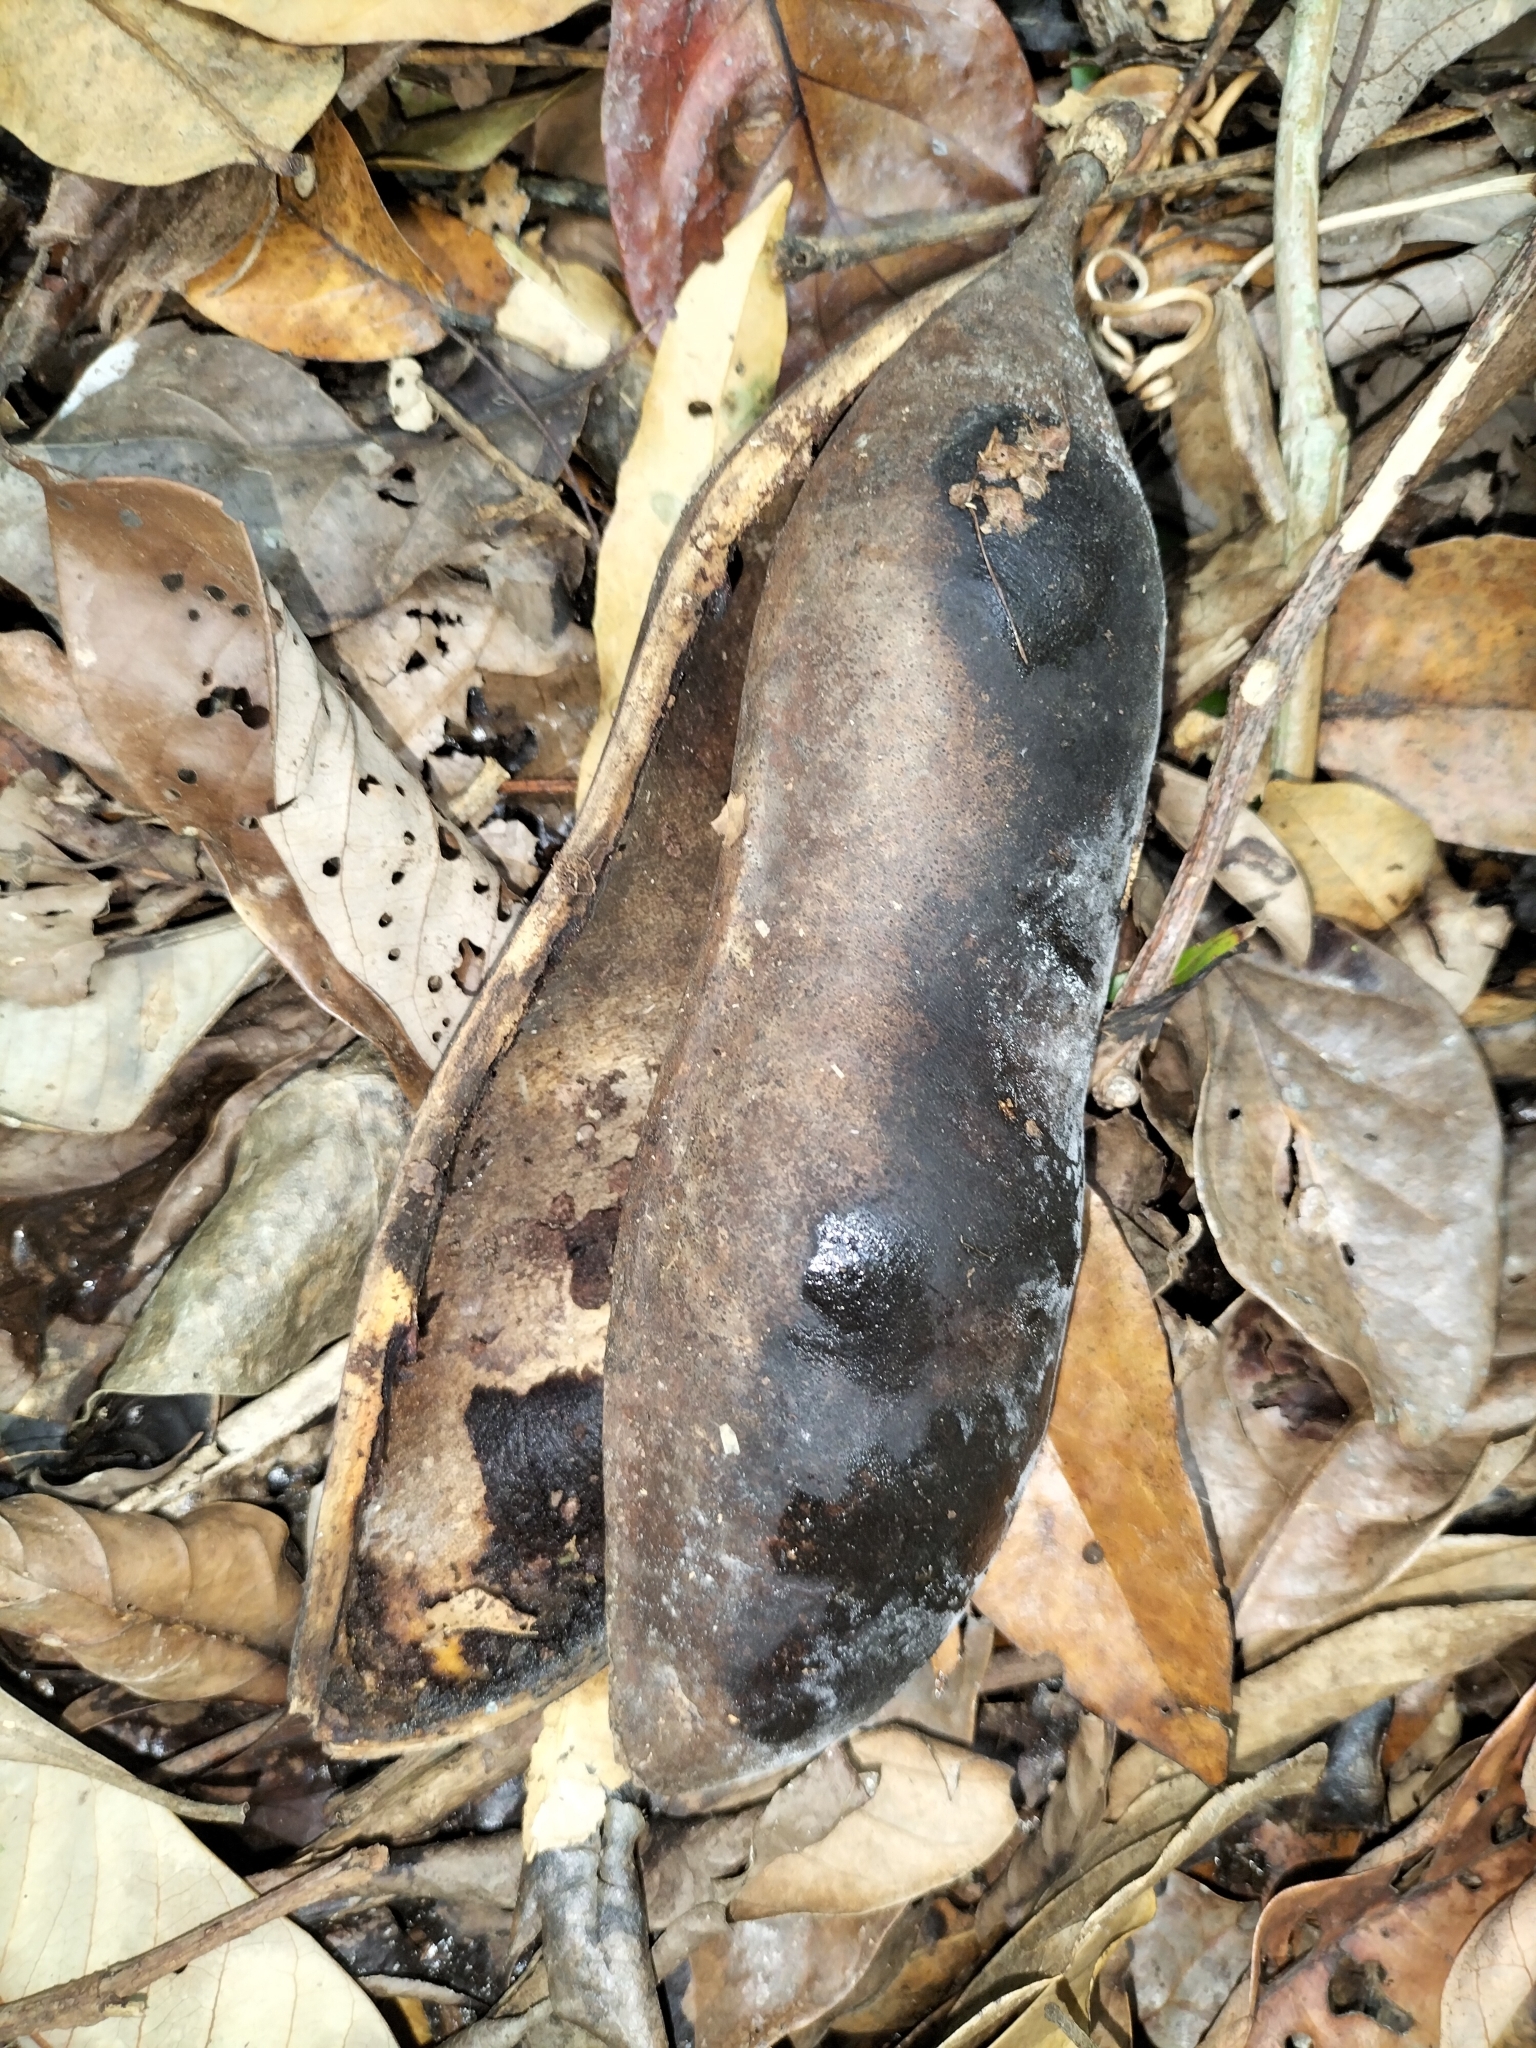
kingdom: Plantae
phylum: Tracheophyta
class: Magnoliopsida
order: Fabales
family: Fabaceae
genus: Castanospermum
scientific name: Castanospermum australe
